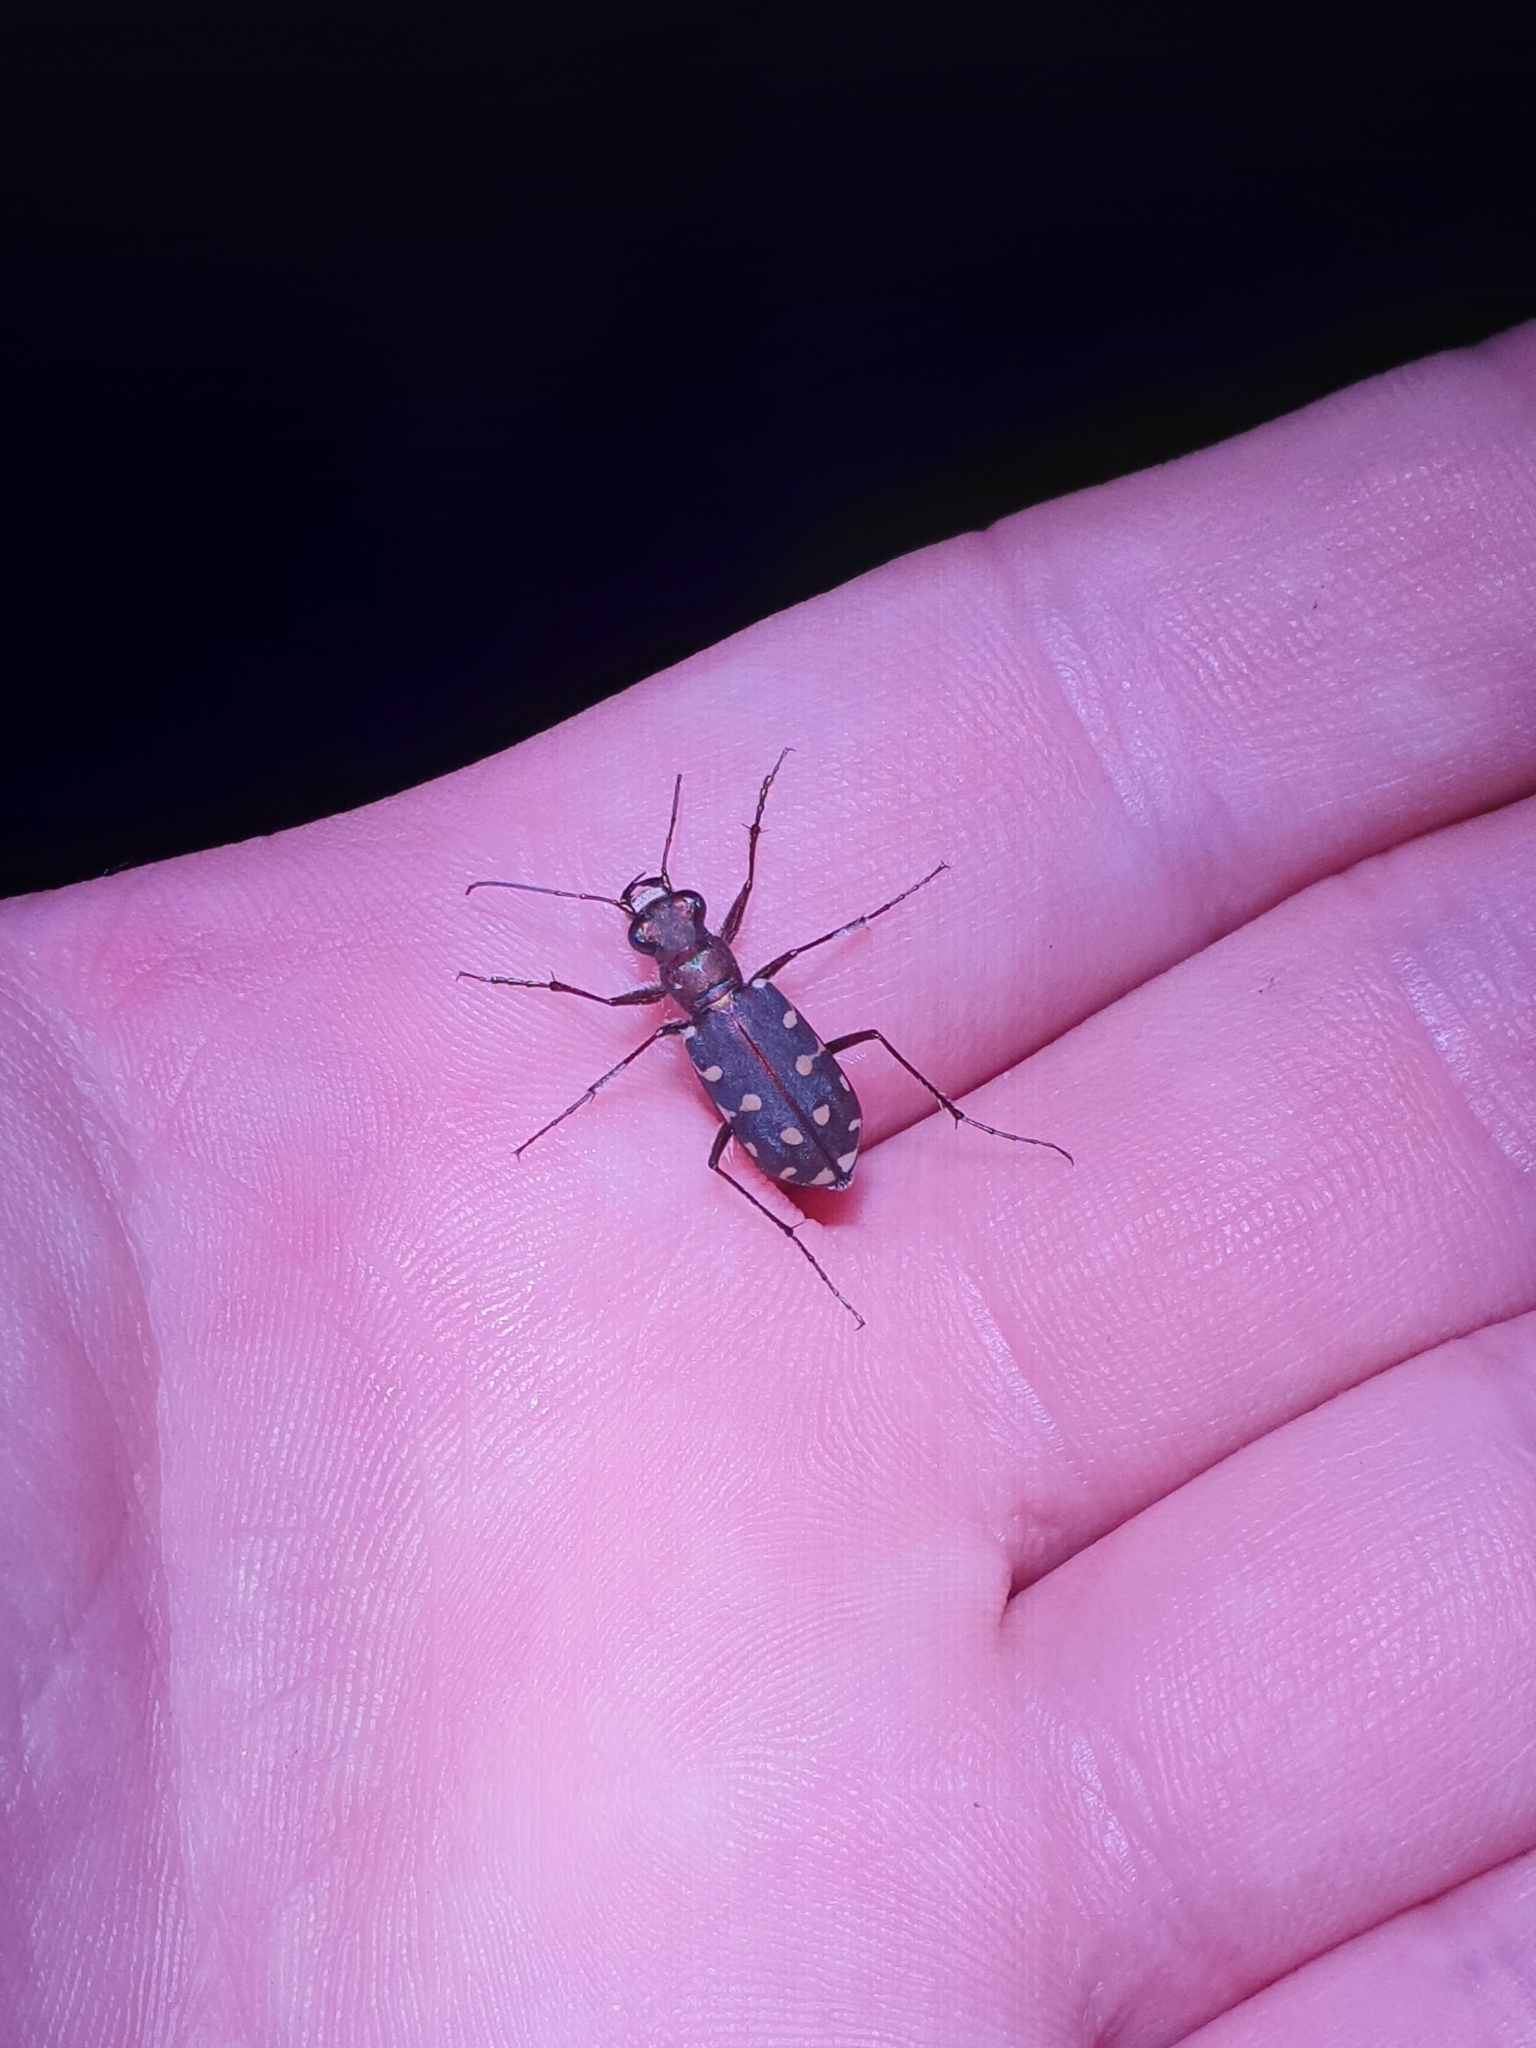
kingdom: Animalia
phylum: Arthropoda
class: Insecta
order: Coleoptera
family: Carabidae
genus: Cicindela
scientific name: Cicindela littoralis
